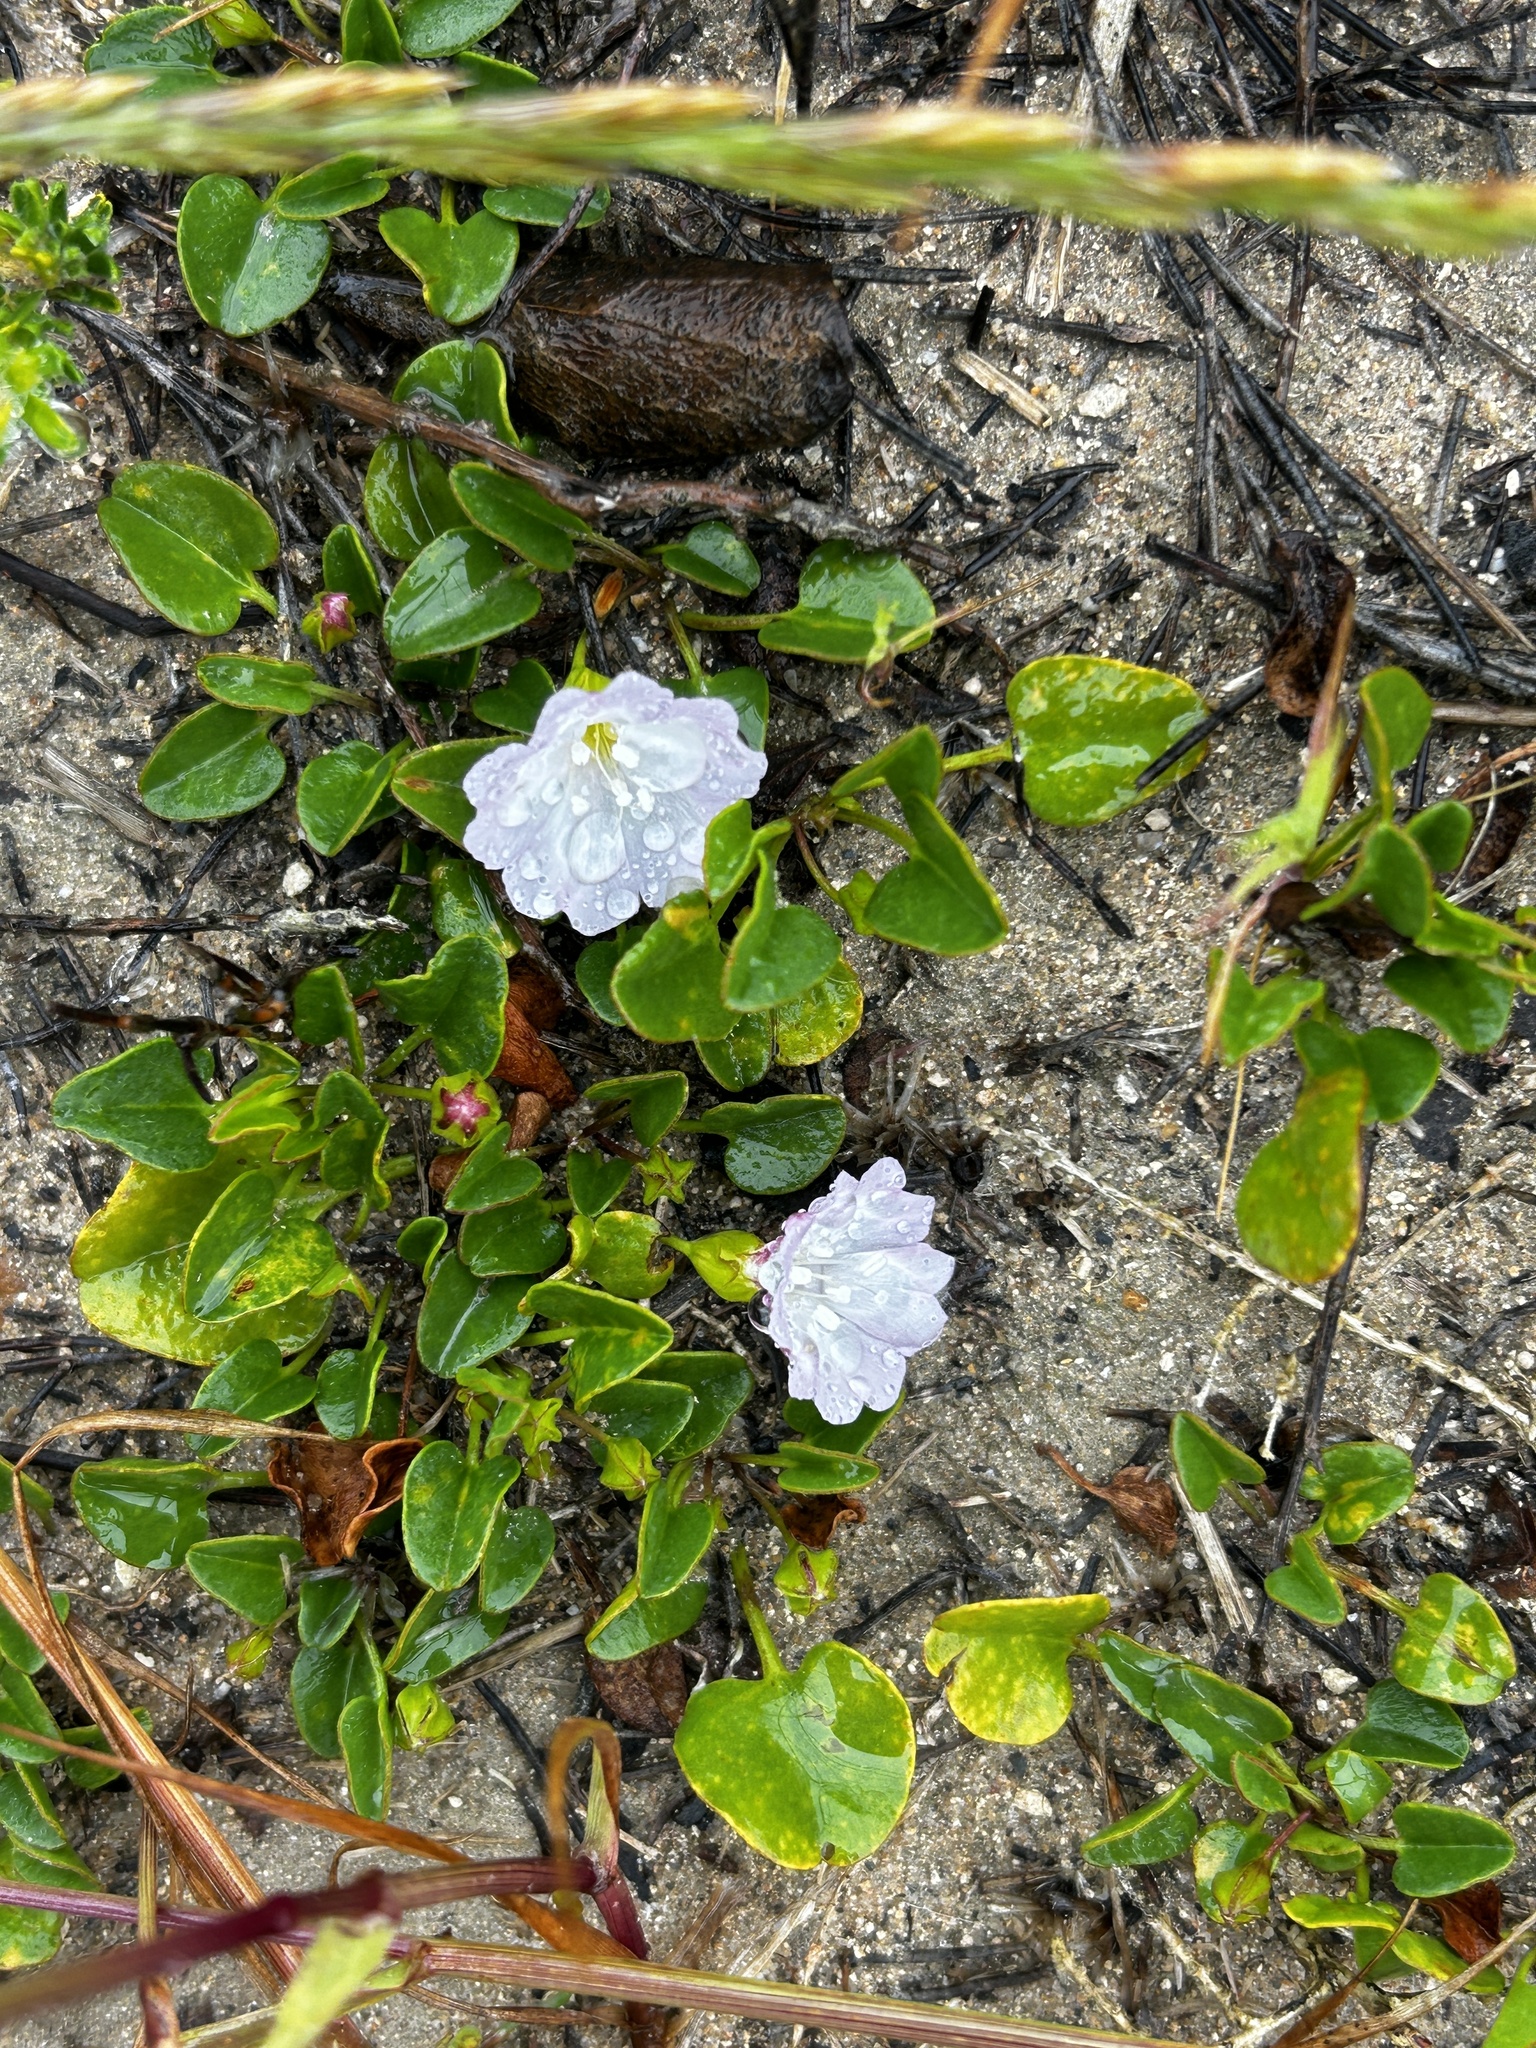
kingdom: Plantae
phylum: Tracheophyta
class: Magnoliopsida
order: Solanales
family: Convolvulaceae
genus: Falkia
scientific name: Falkia repens
